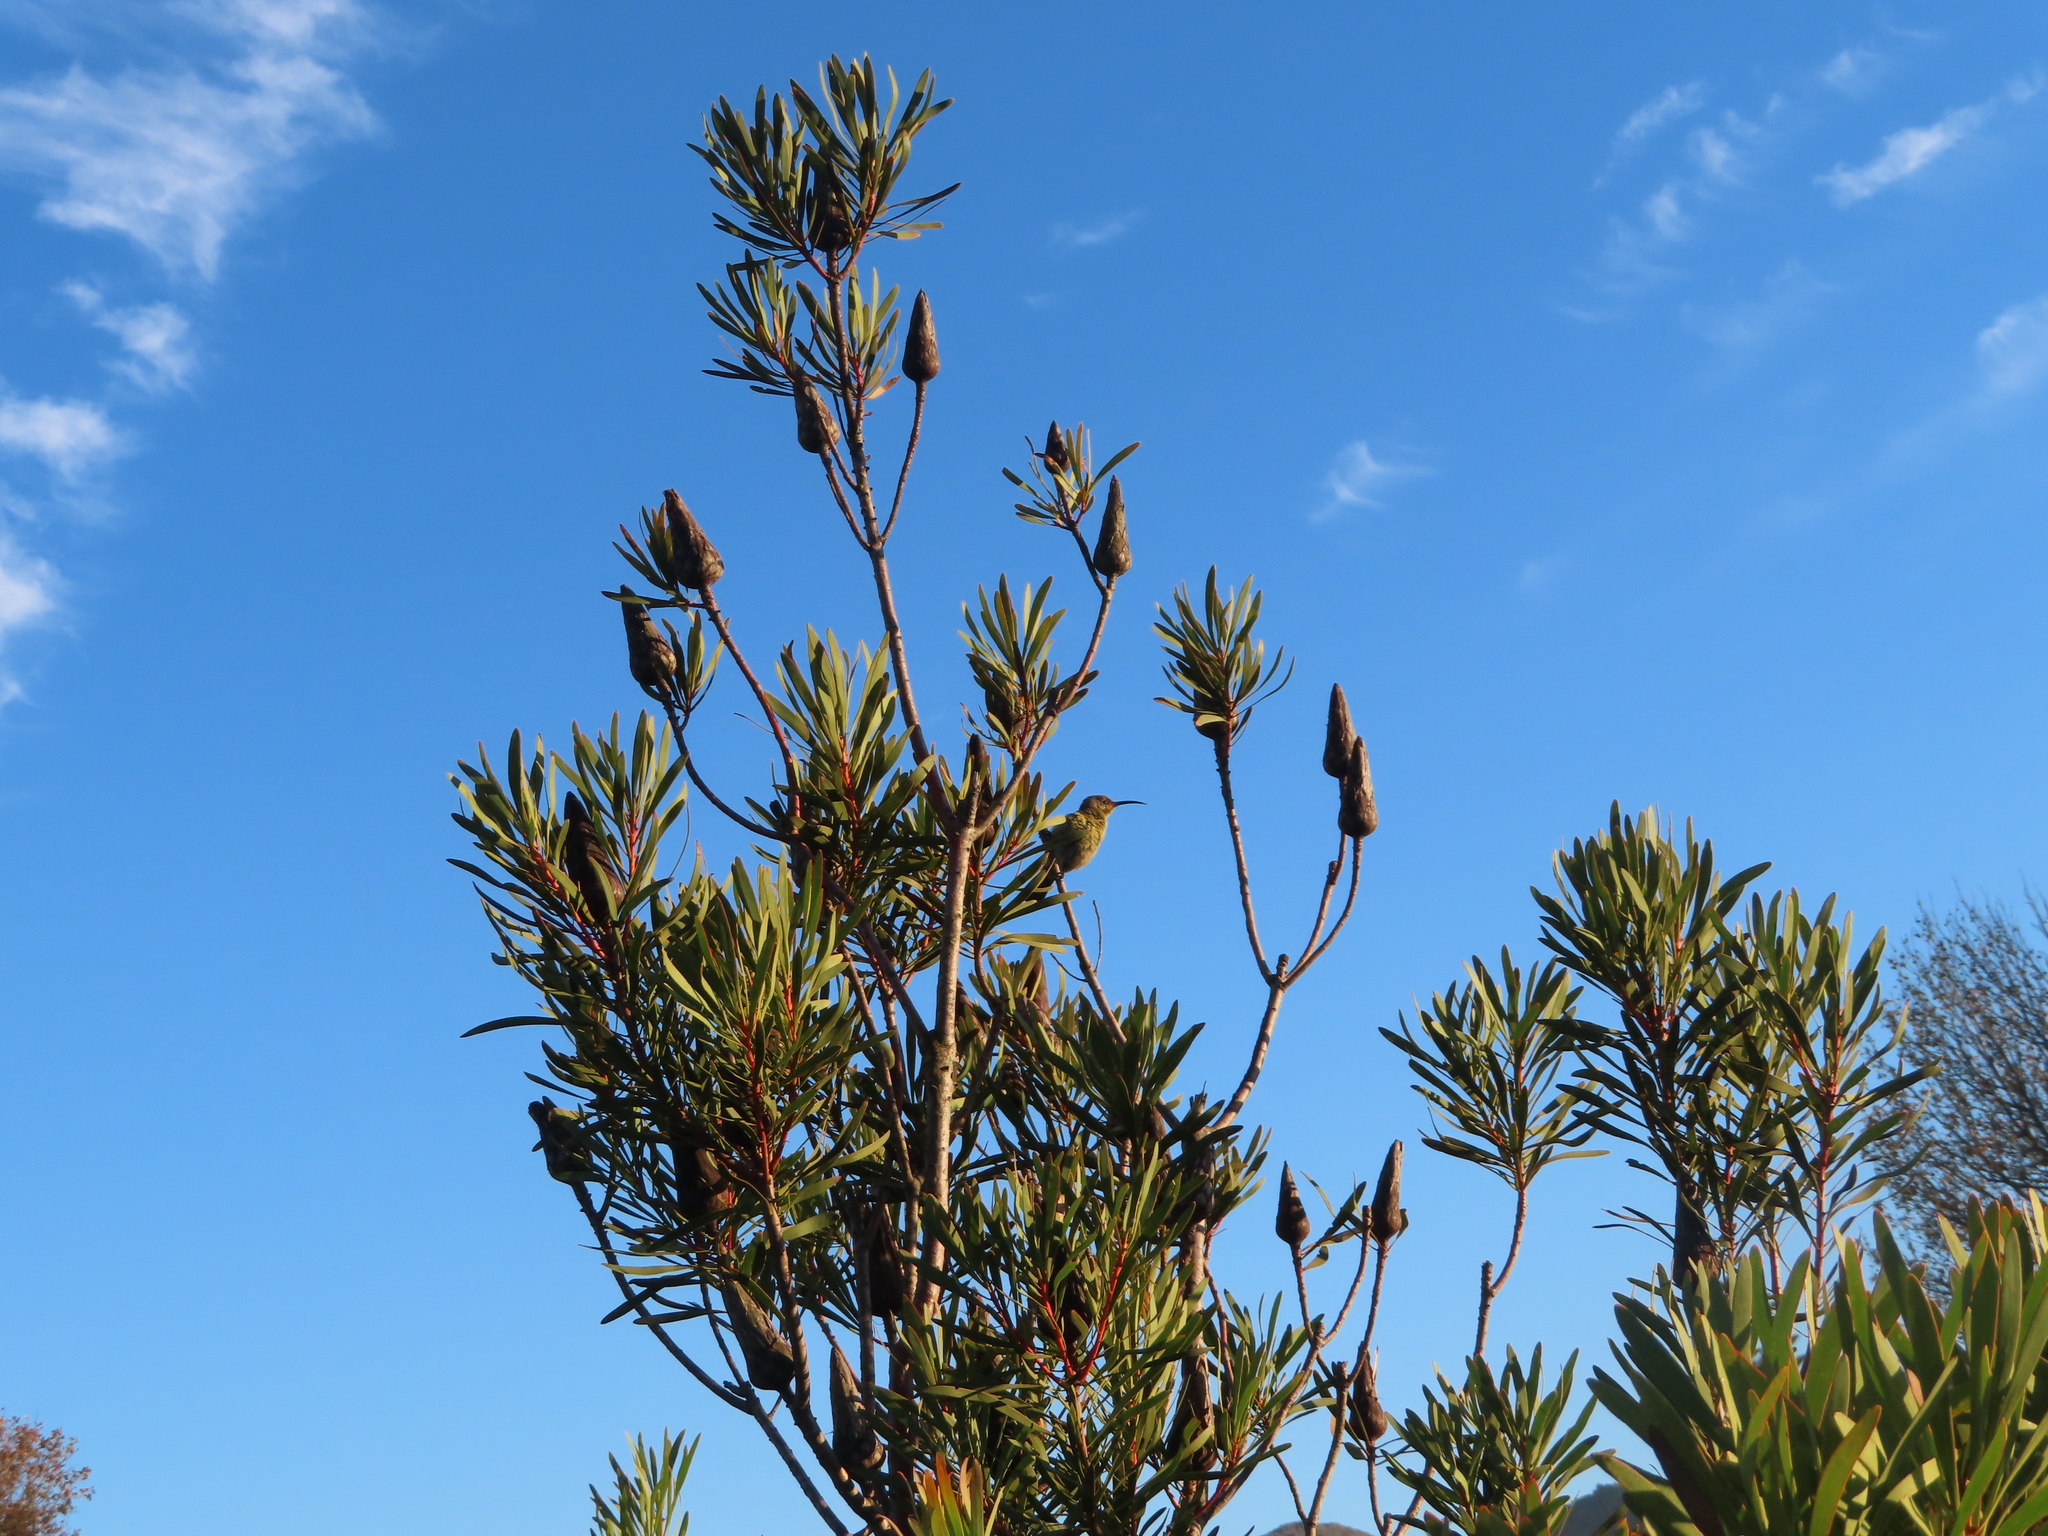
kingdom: Animalia
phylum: Chordata
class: Aves
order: Passeriformes
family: Nectariniidae
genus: Anthobaphes
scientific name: Anthobaphes violacea
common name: Orange-breasted sunbird
